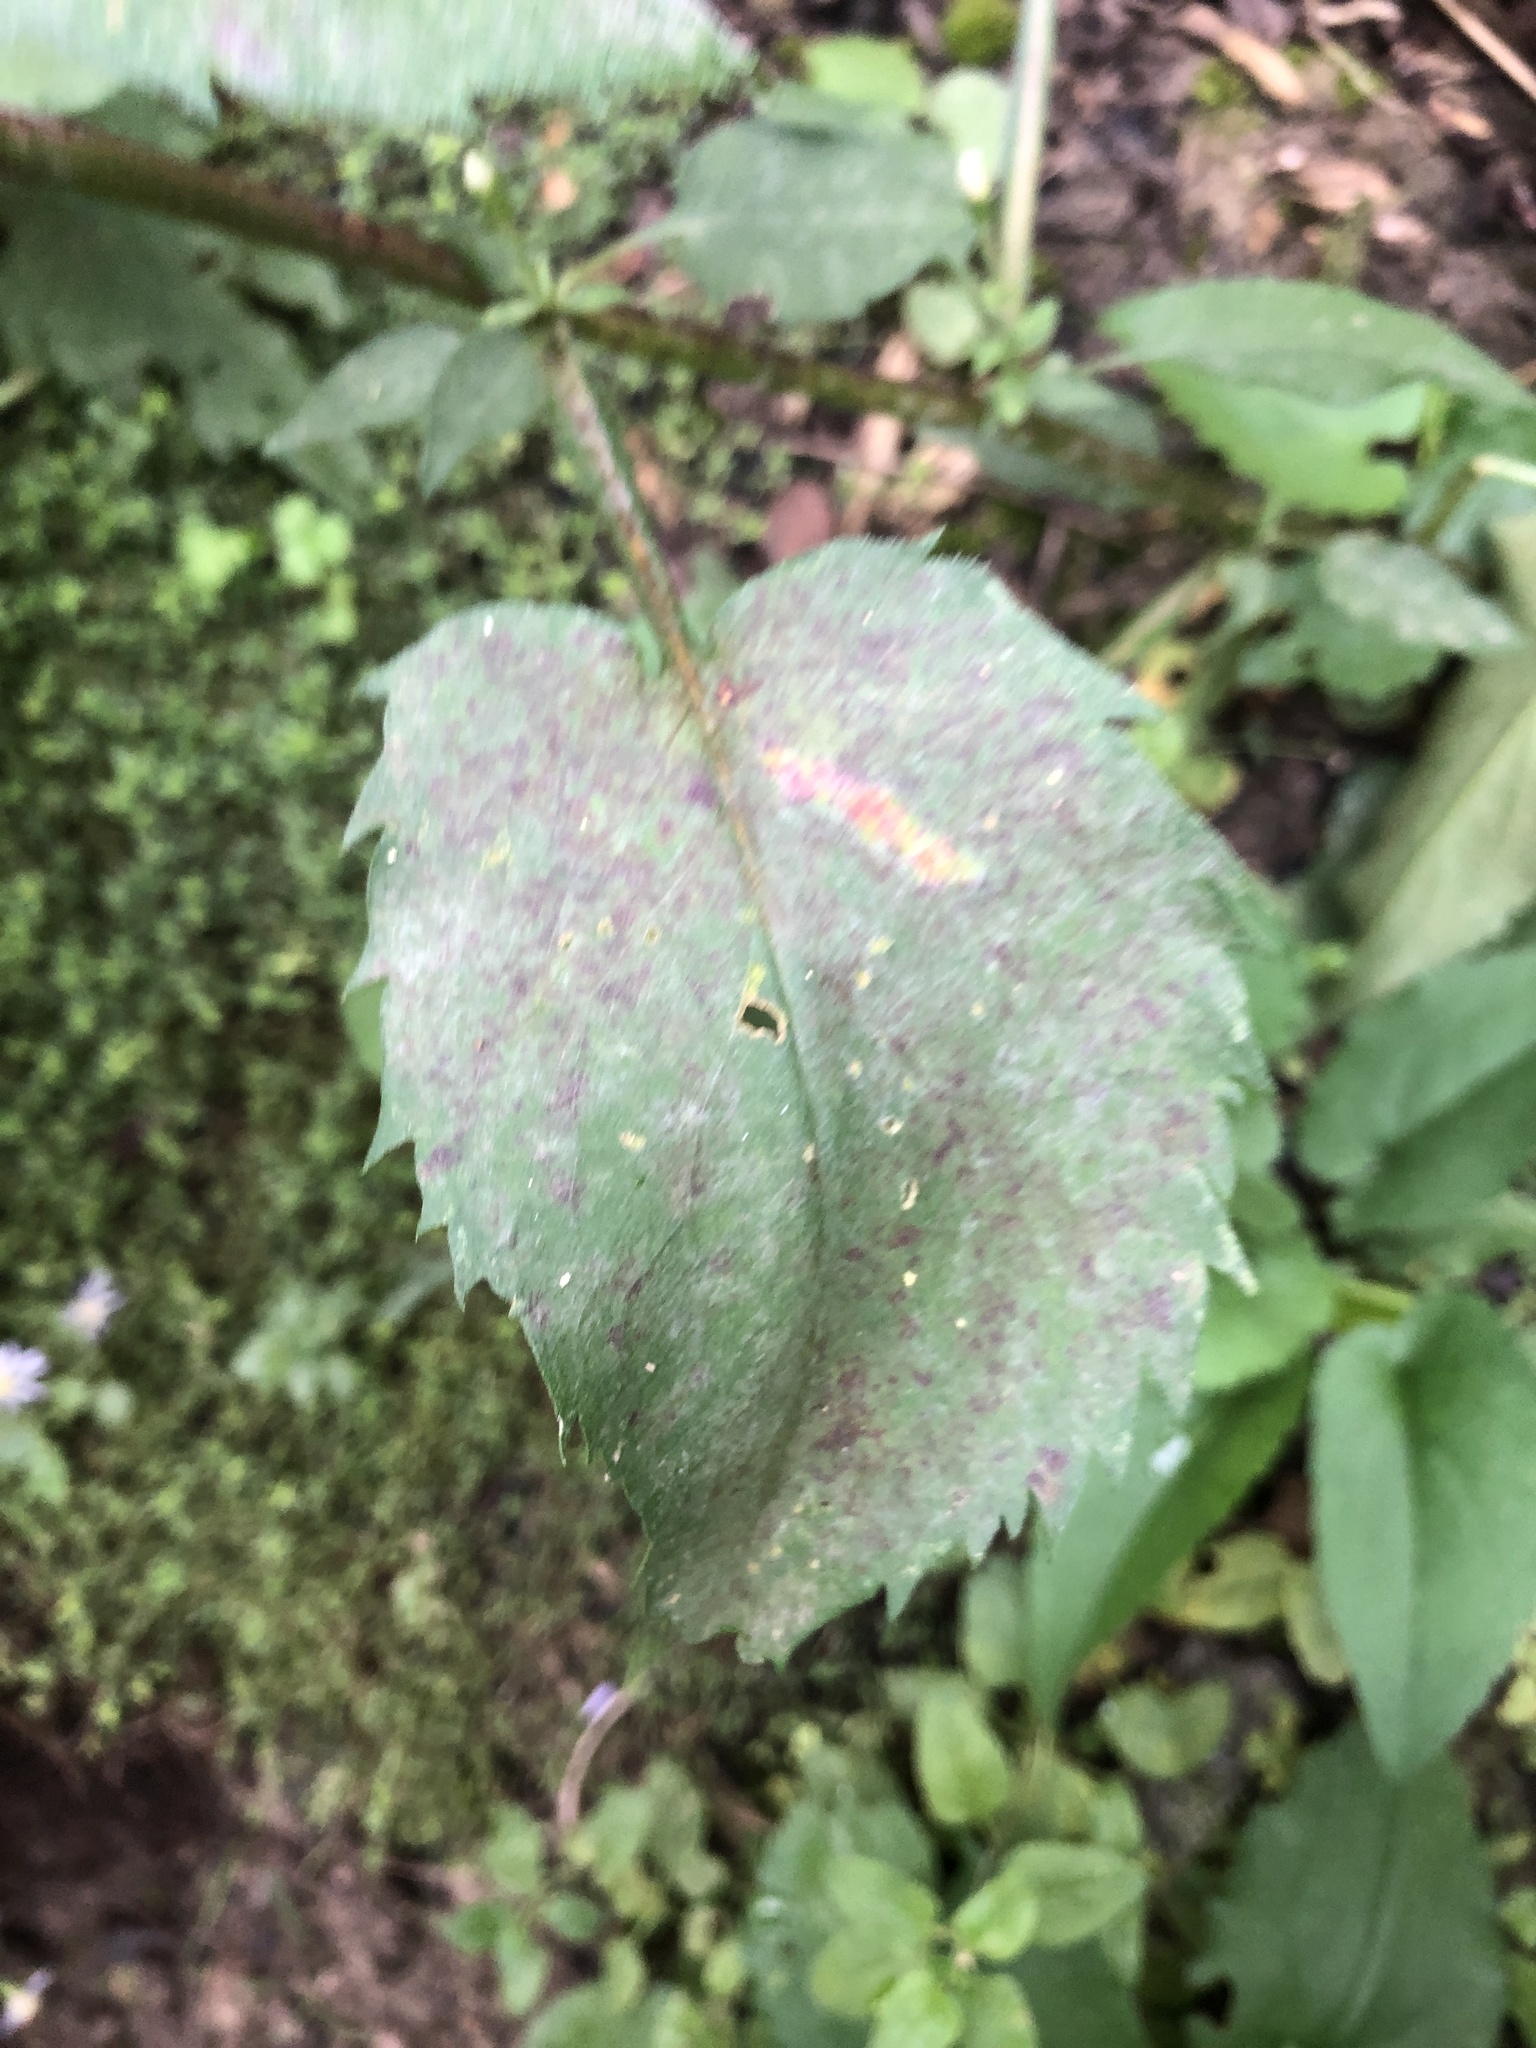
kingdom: Plantae
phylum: Tracheophyta
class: Magnoliopsida
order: Asterales
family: Asteraceae
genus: Symphyotrichum
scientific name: Symphyotrichum cordifolium
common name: Beeweed
